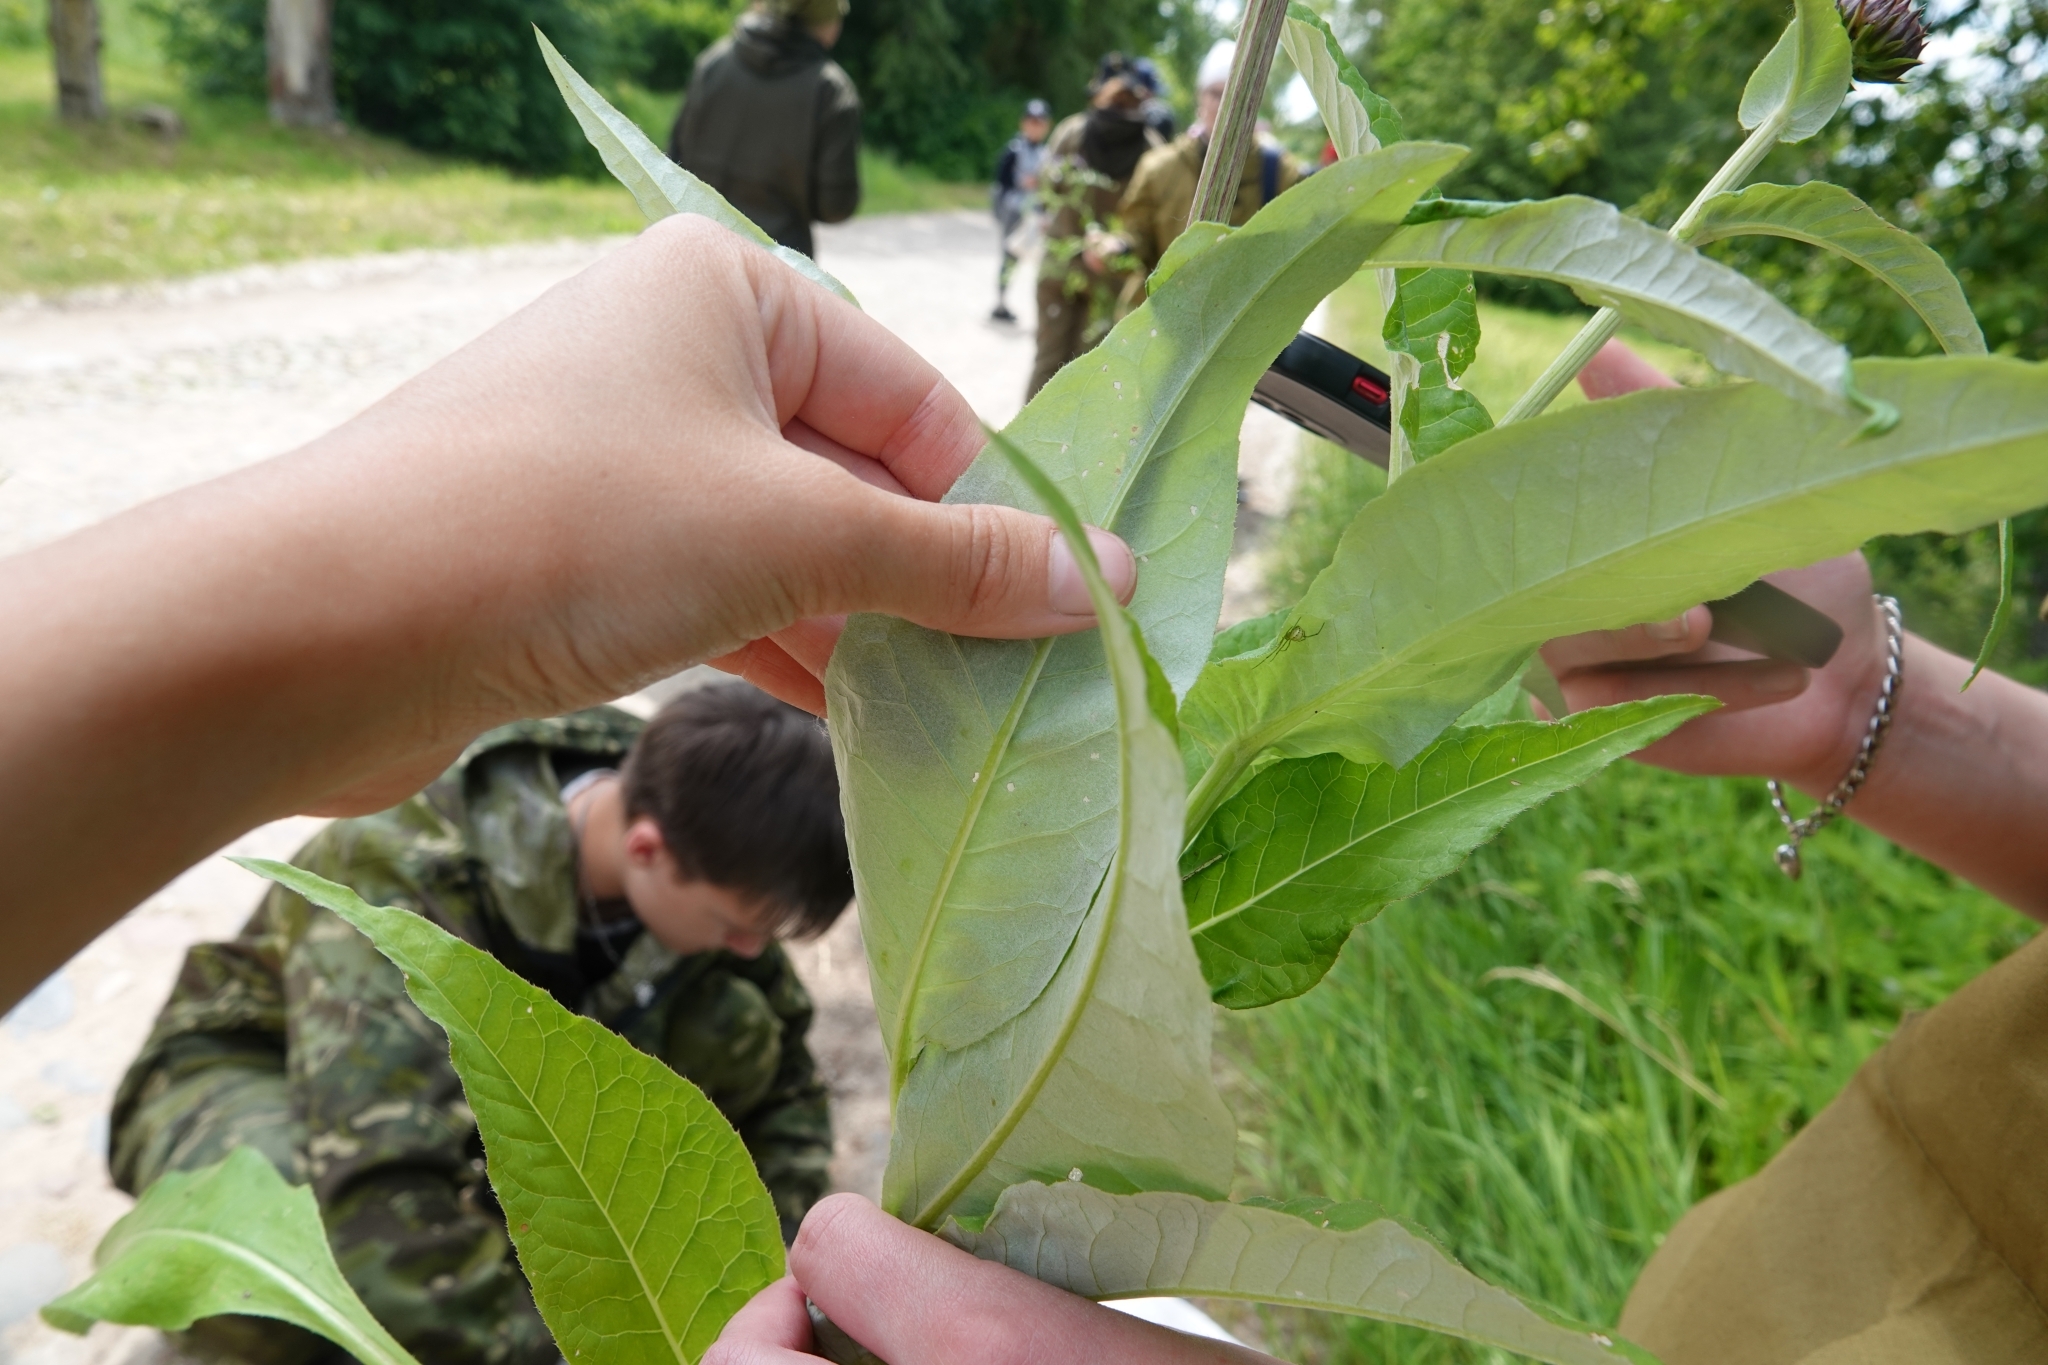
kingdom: Plantae
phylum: Tracheophyta
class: Magnoliopsida
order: Asterales
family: Asteraceae
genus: Cirsium
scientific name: Cirsium heterophyllum
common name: Melancholy thistle
